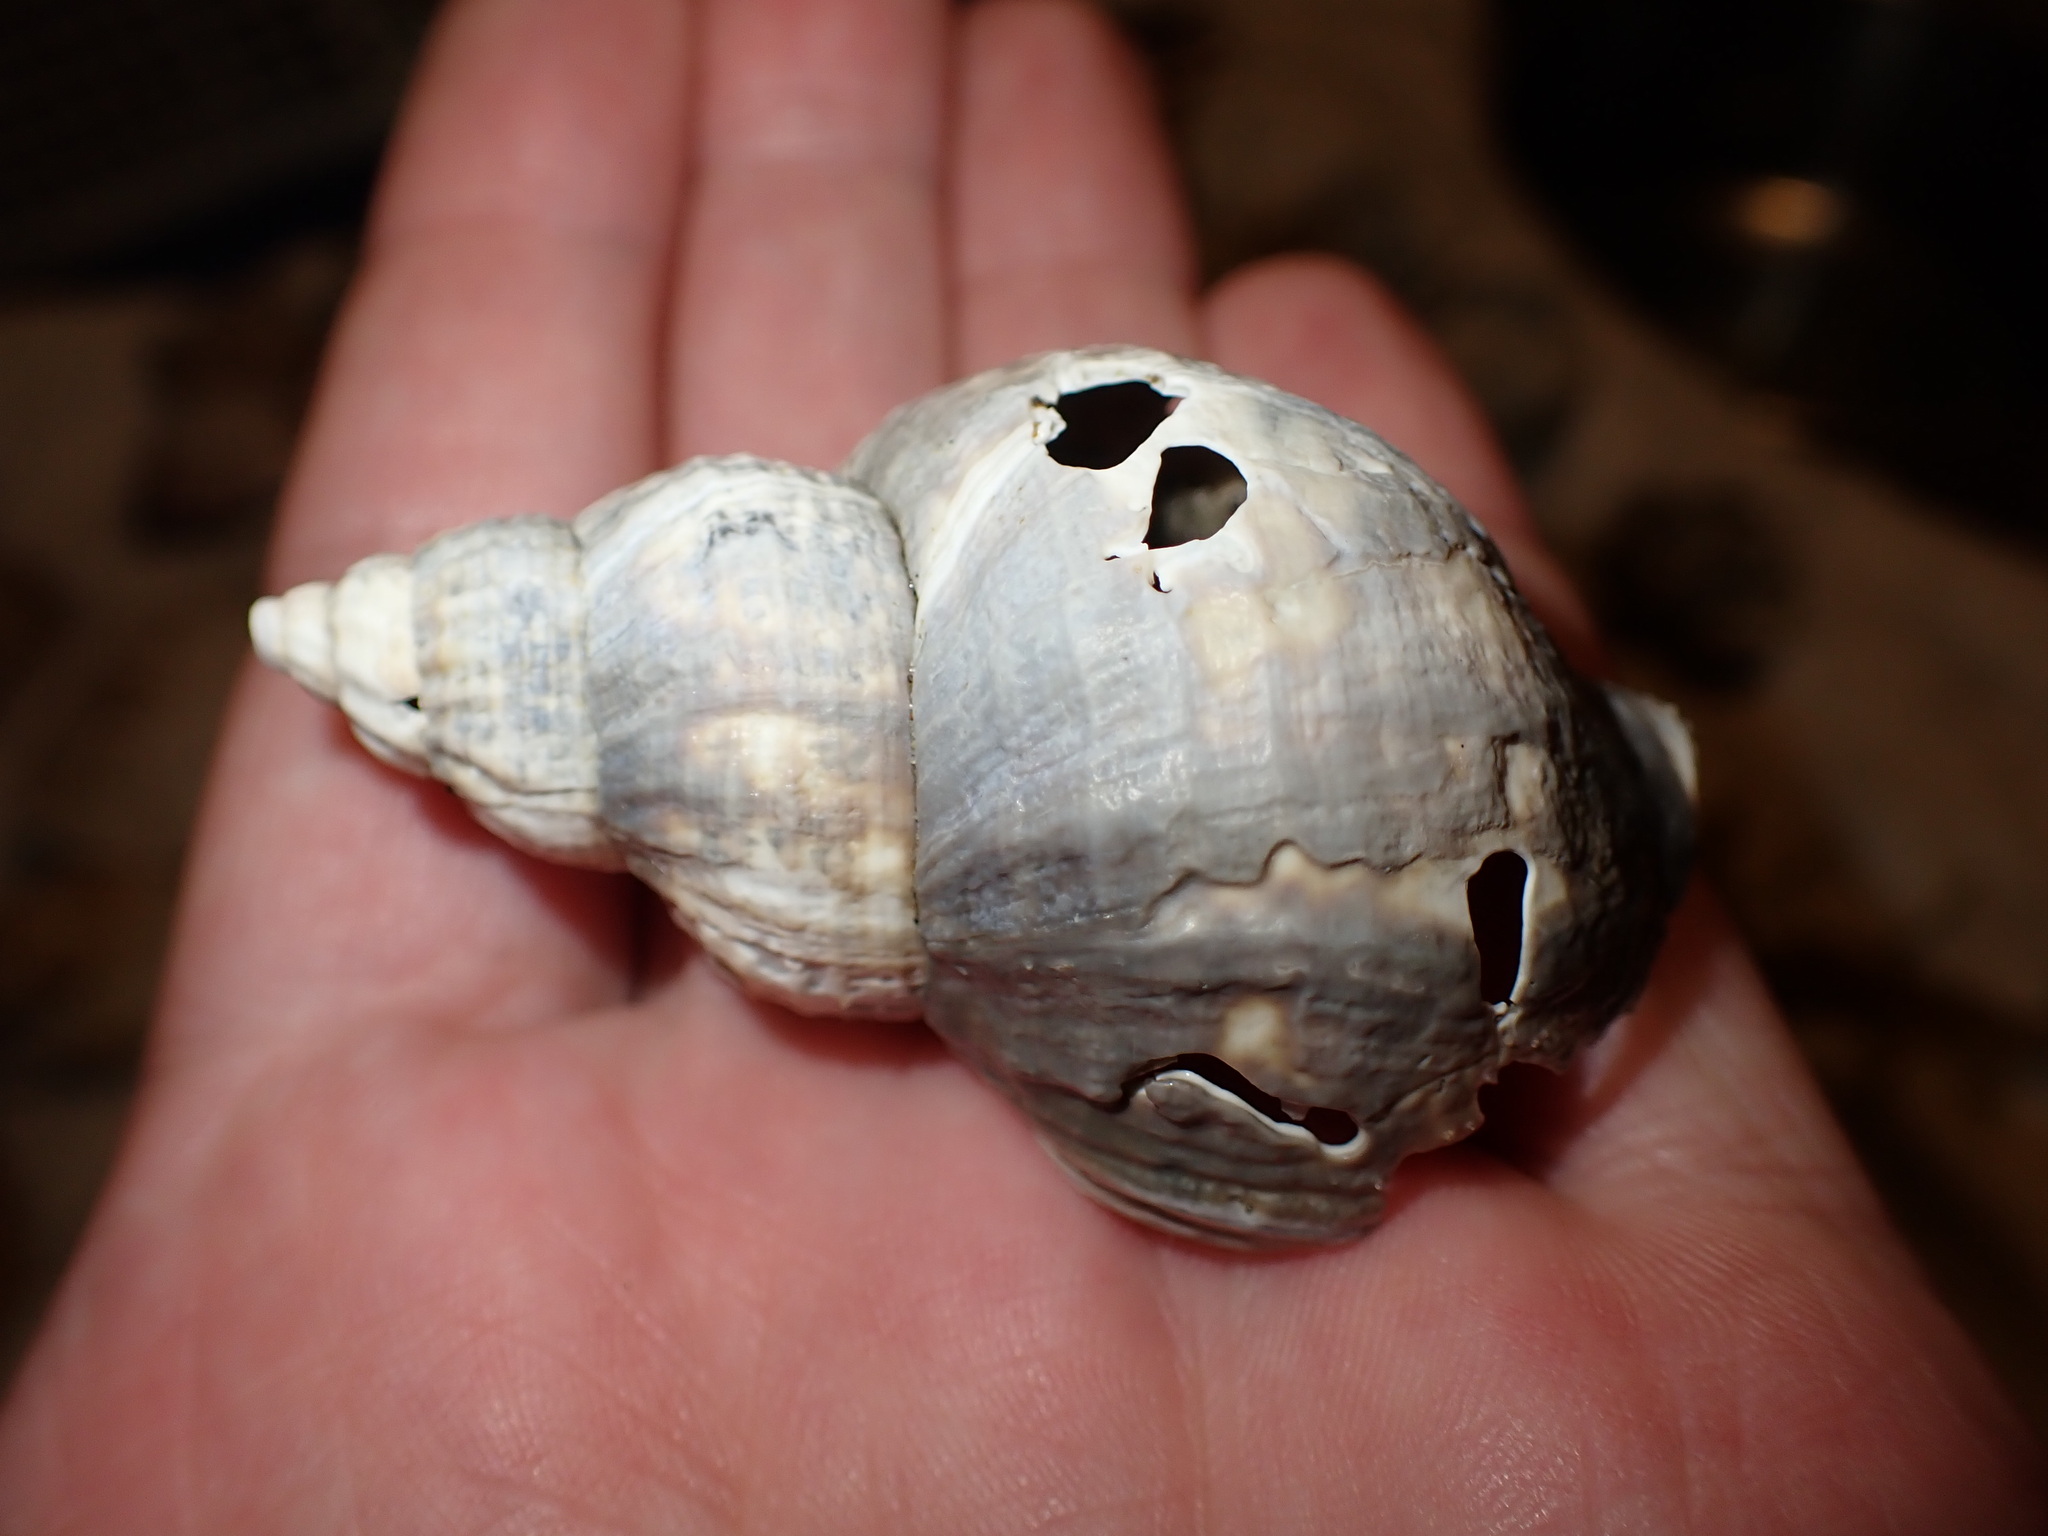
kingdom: Animalia
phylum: Mollusca
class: Gastropoda
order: Neogastropoda
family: Buccinidae
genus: Buccinum
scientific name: Buccinum undatum
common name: Common whelk
